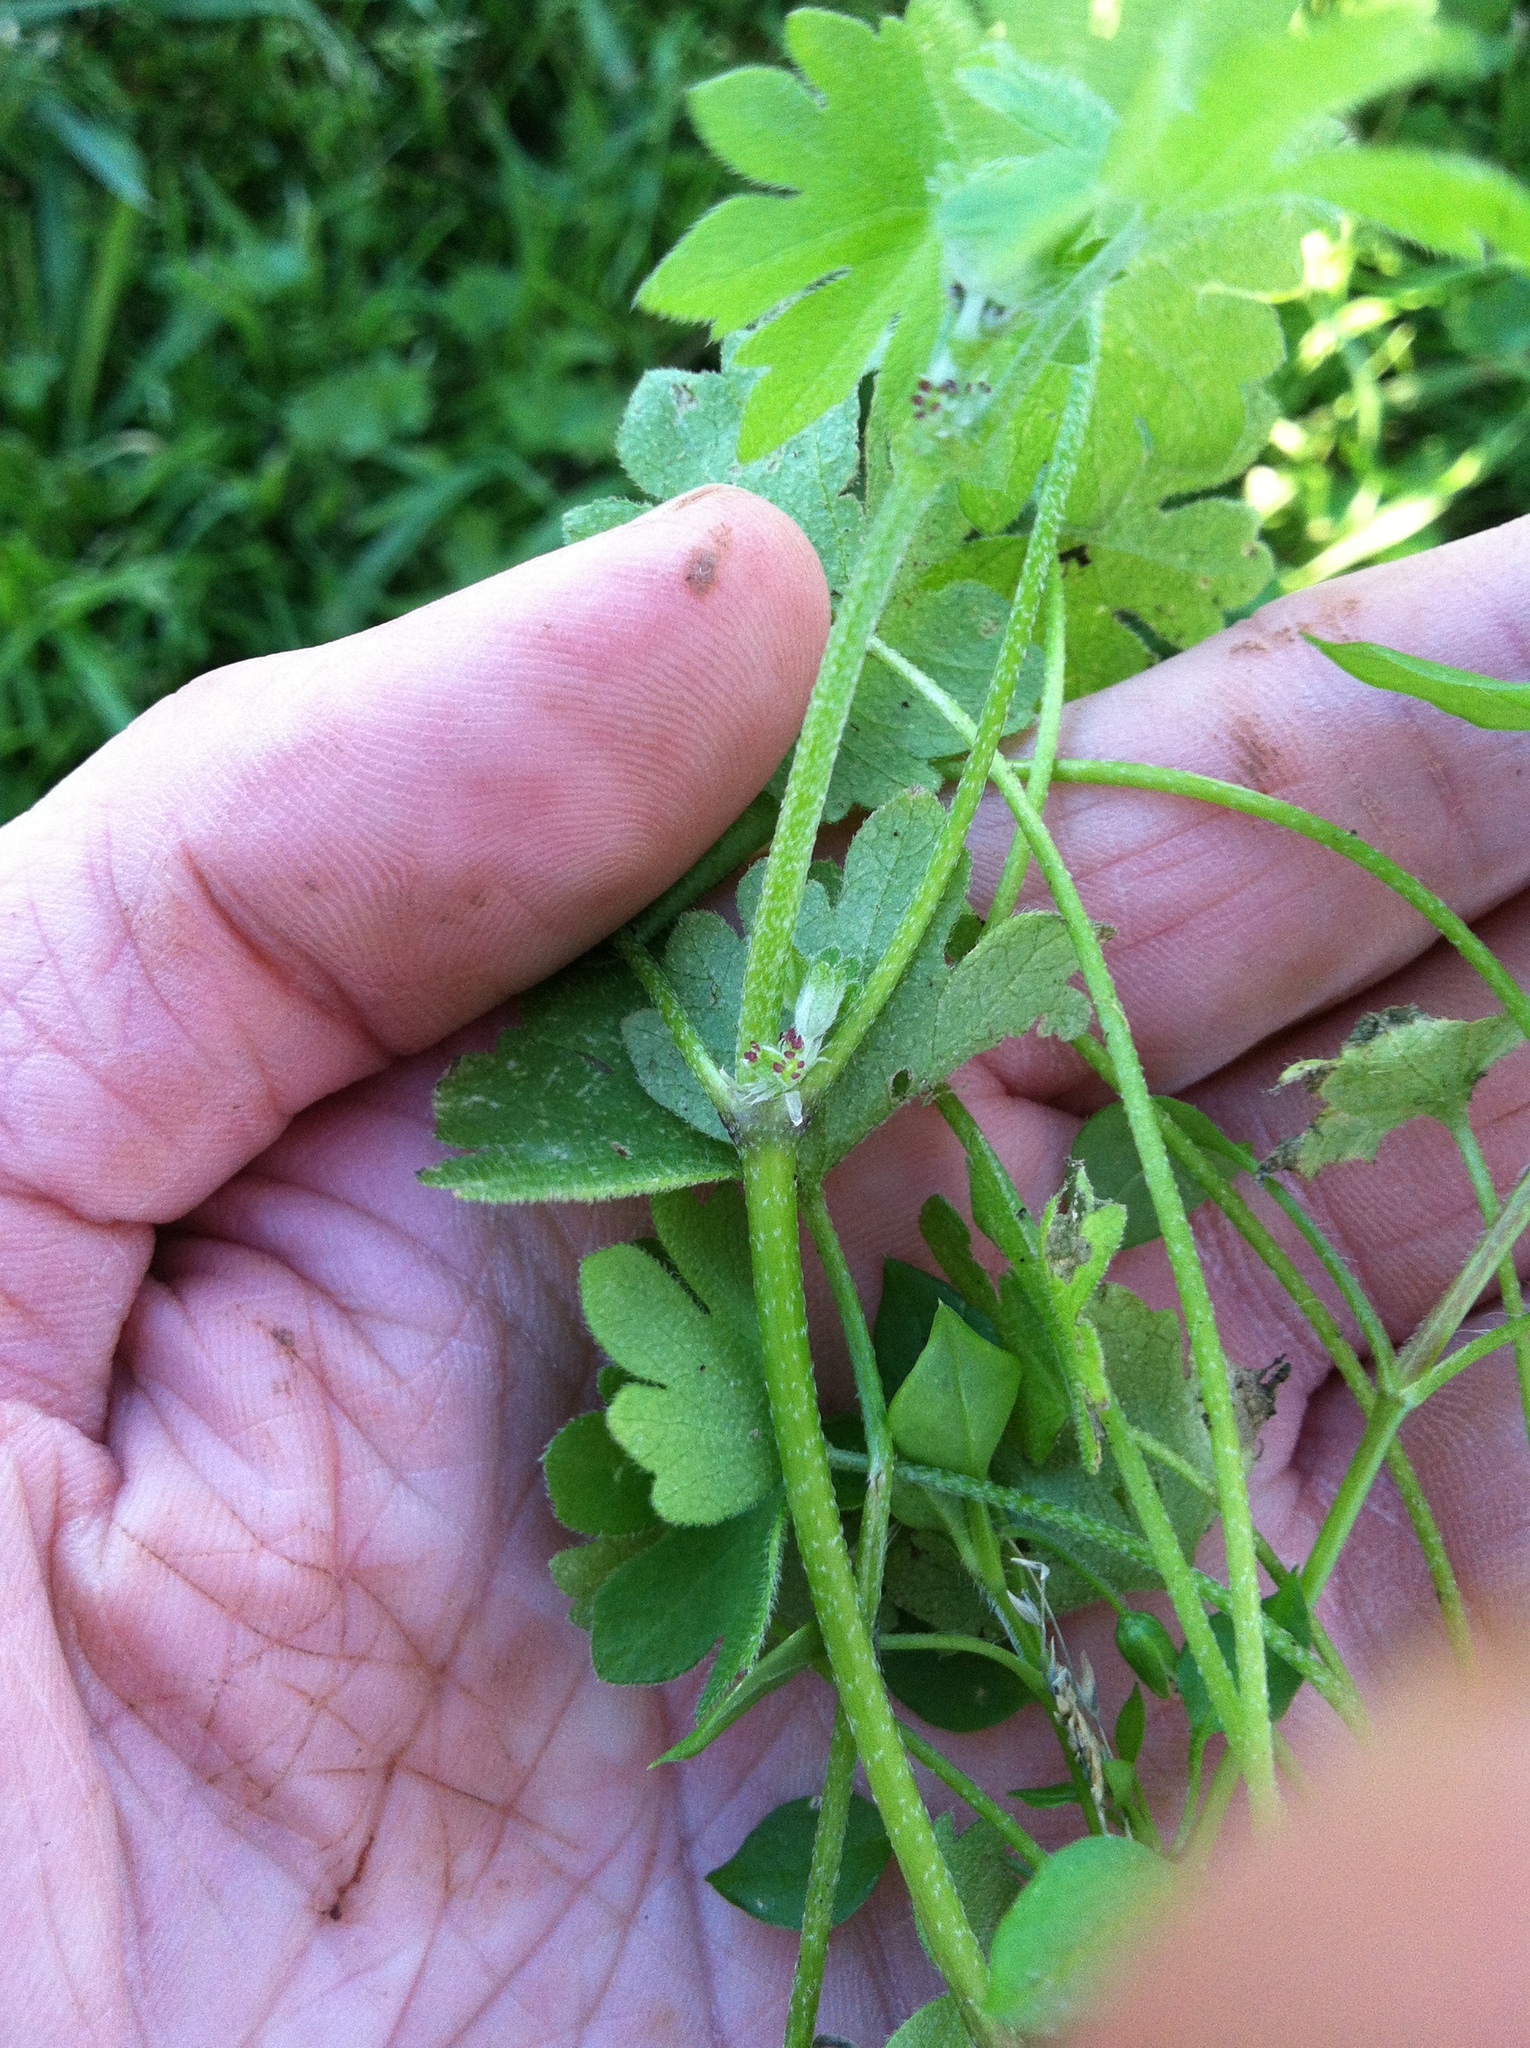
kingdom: Plantae
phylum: Tracheophyta
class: Magnoliopsida
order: Apiales
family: Apiaceae
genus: Bowlesia
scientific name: Bowlesia incana
